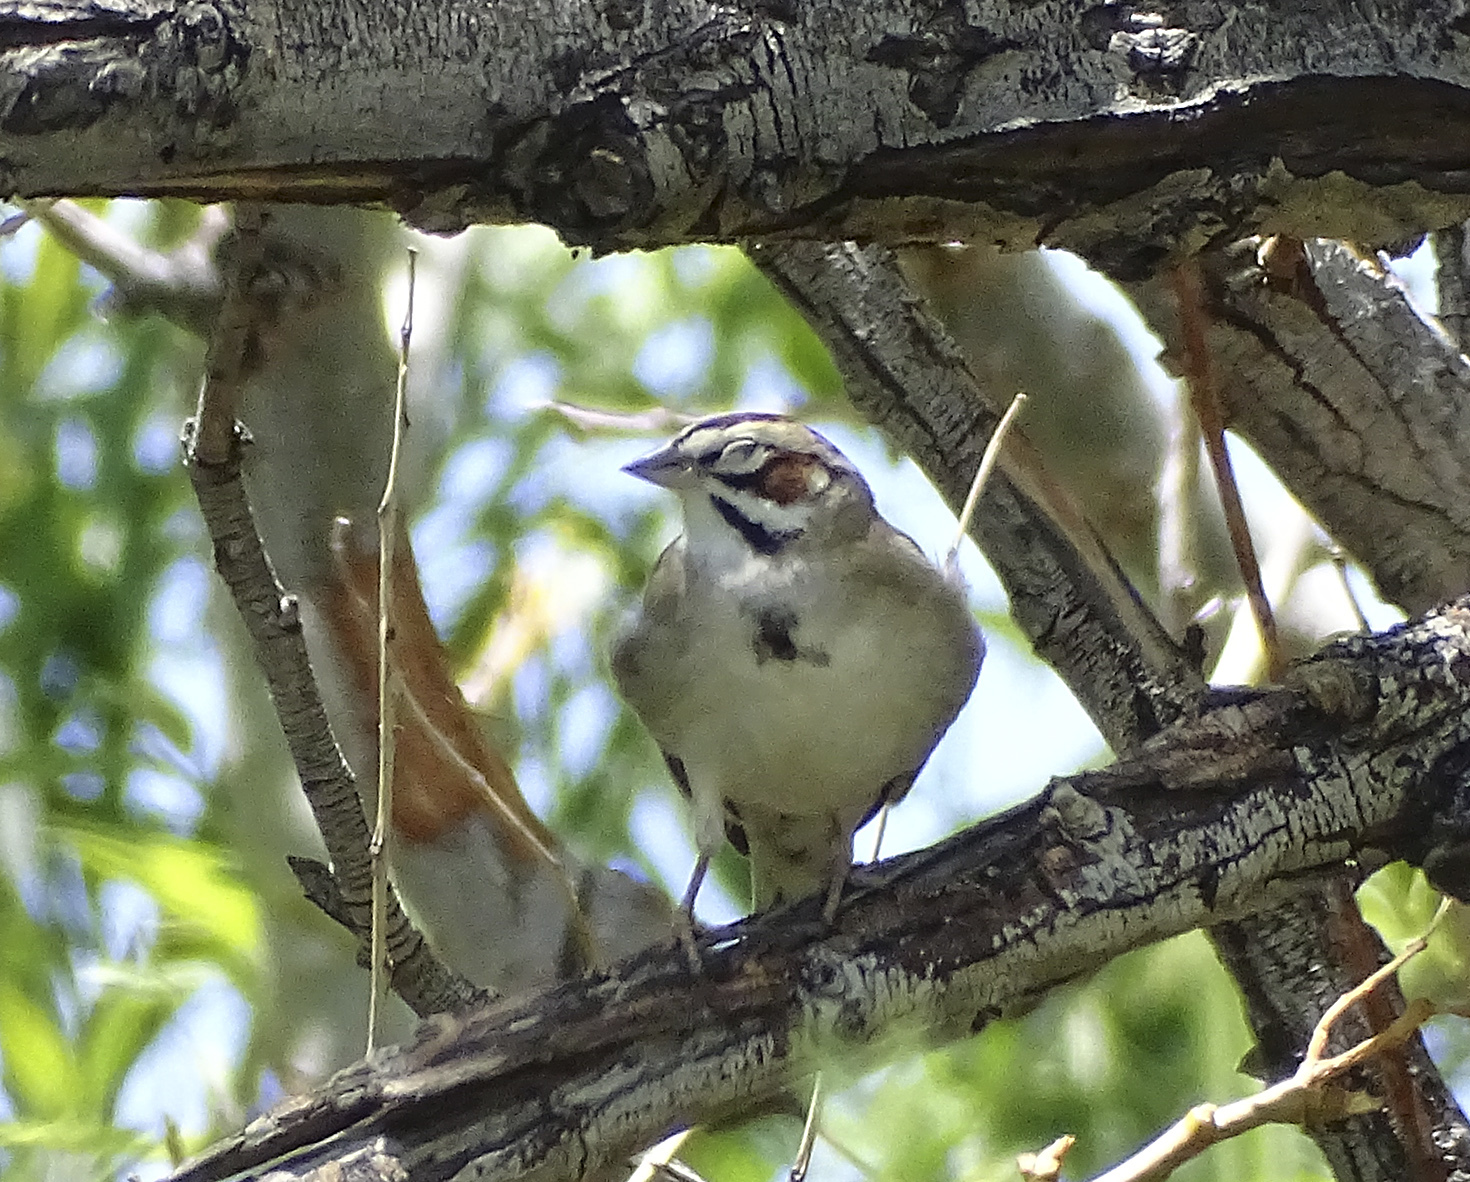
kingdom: Animalia
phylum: Chordata
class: Aves
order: Passeriformes
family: Passerellidae
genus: Chondestes
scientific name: Chondestes grammacus
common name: Lark sparrow
